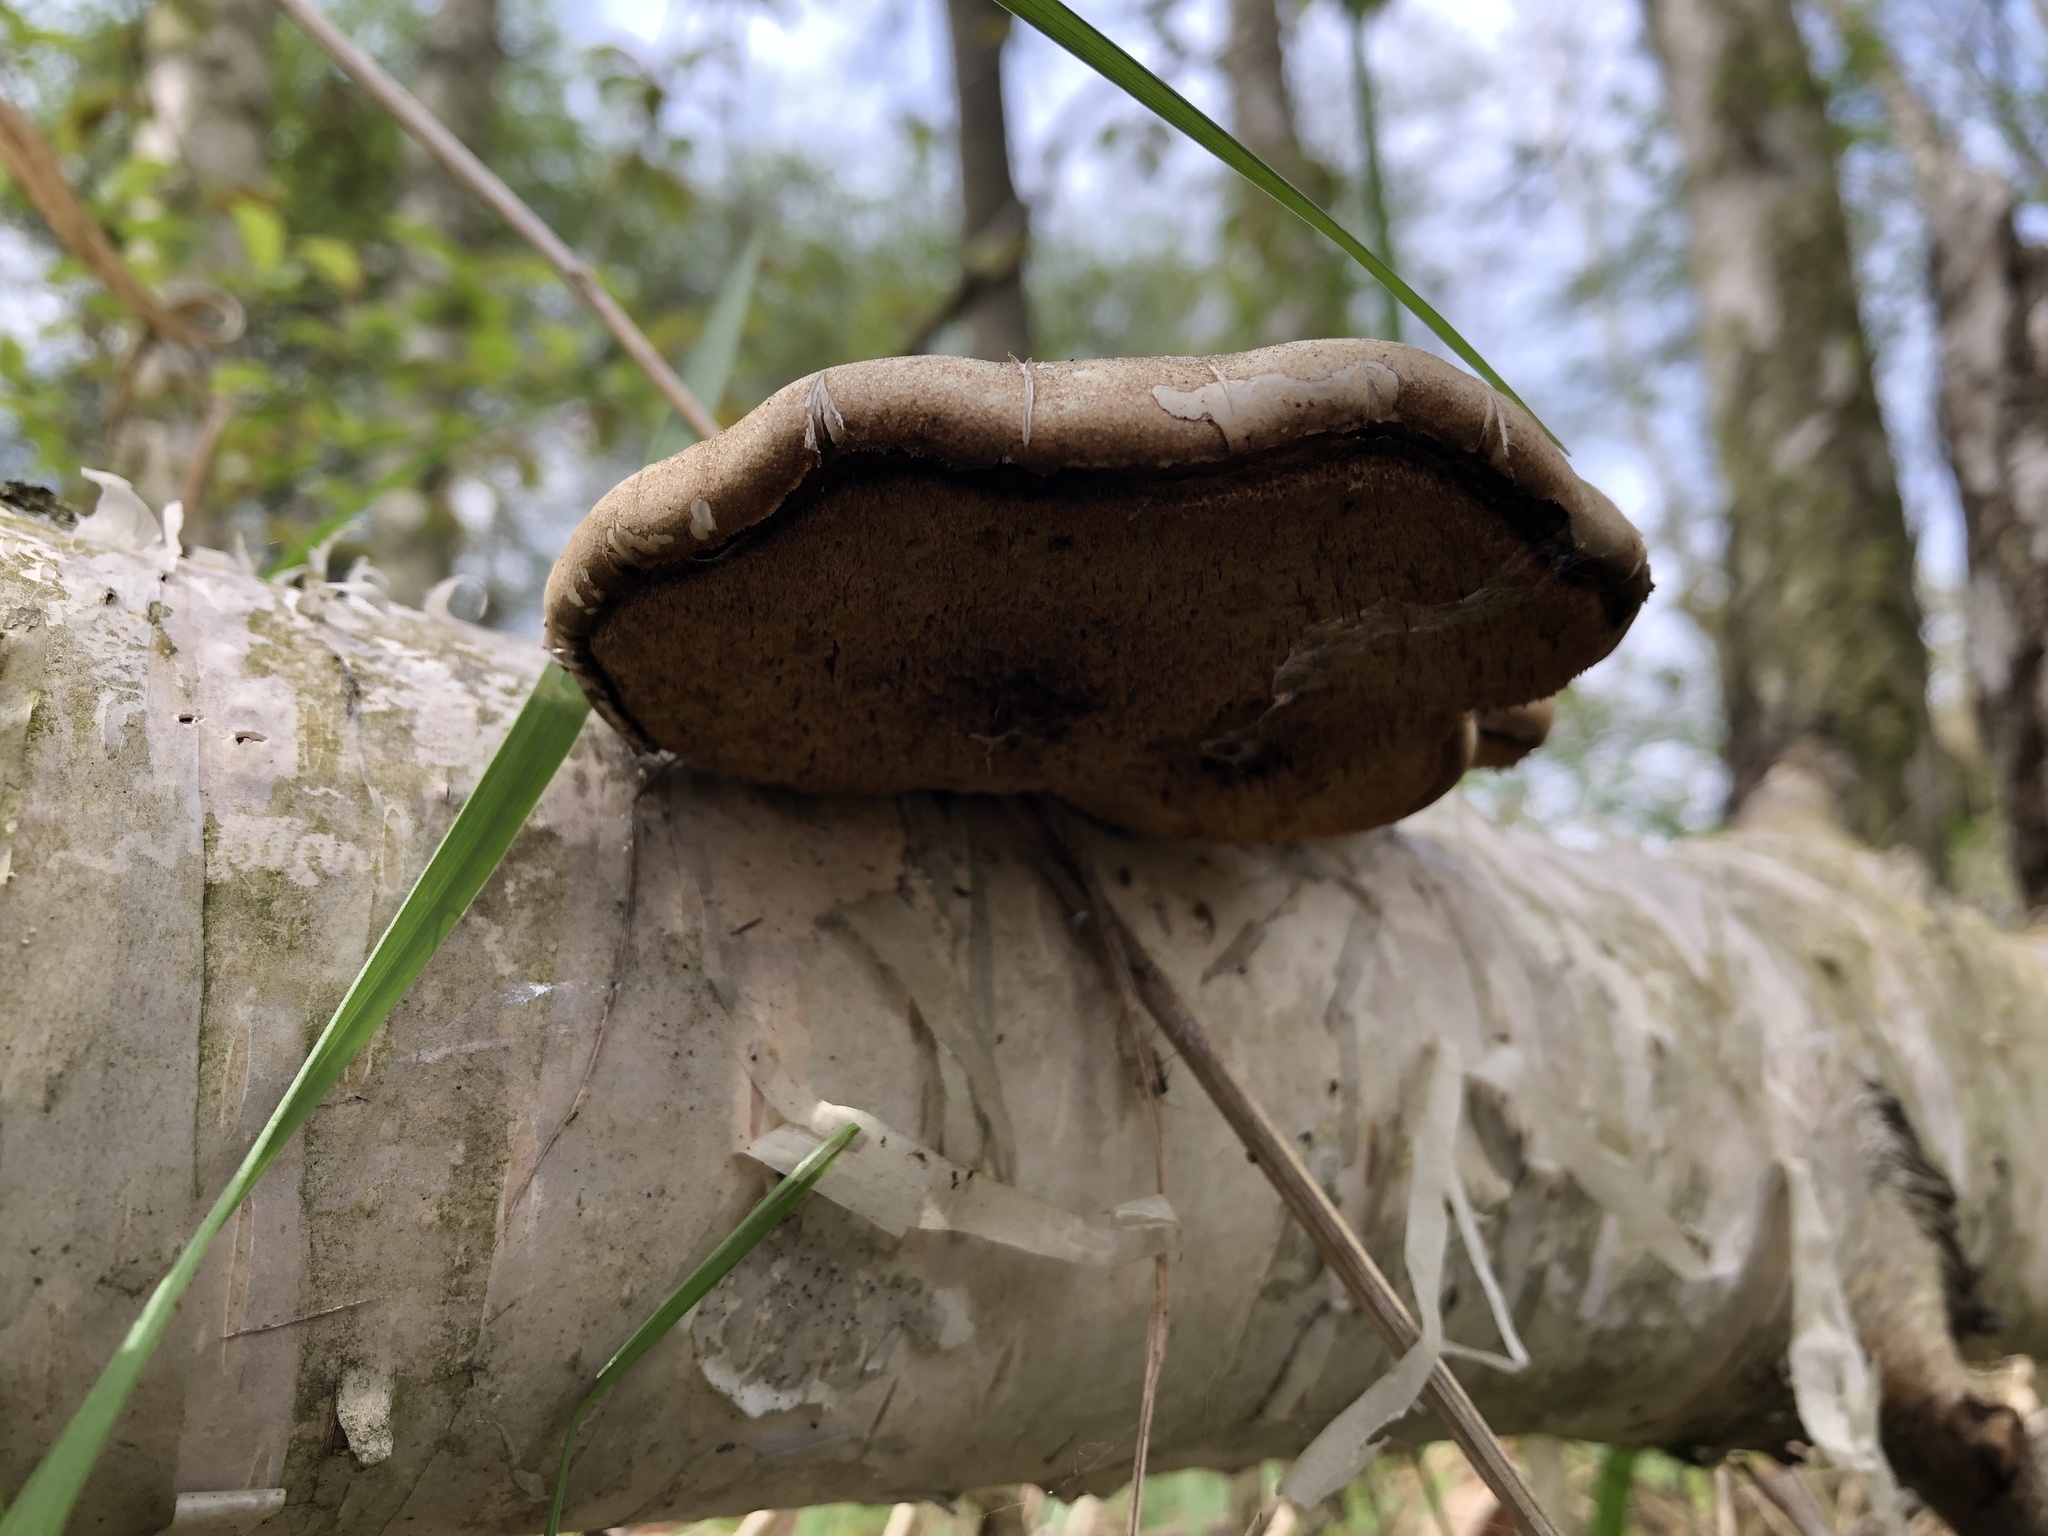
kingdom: Fungi
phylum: Basidiomycota
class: Agaricomycetes
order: Polyporales
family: Fomitopsidaceae
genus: Fomitopsis
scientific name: Fomitopsis betulina
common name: Birch polypore
